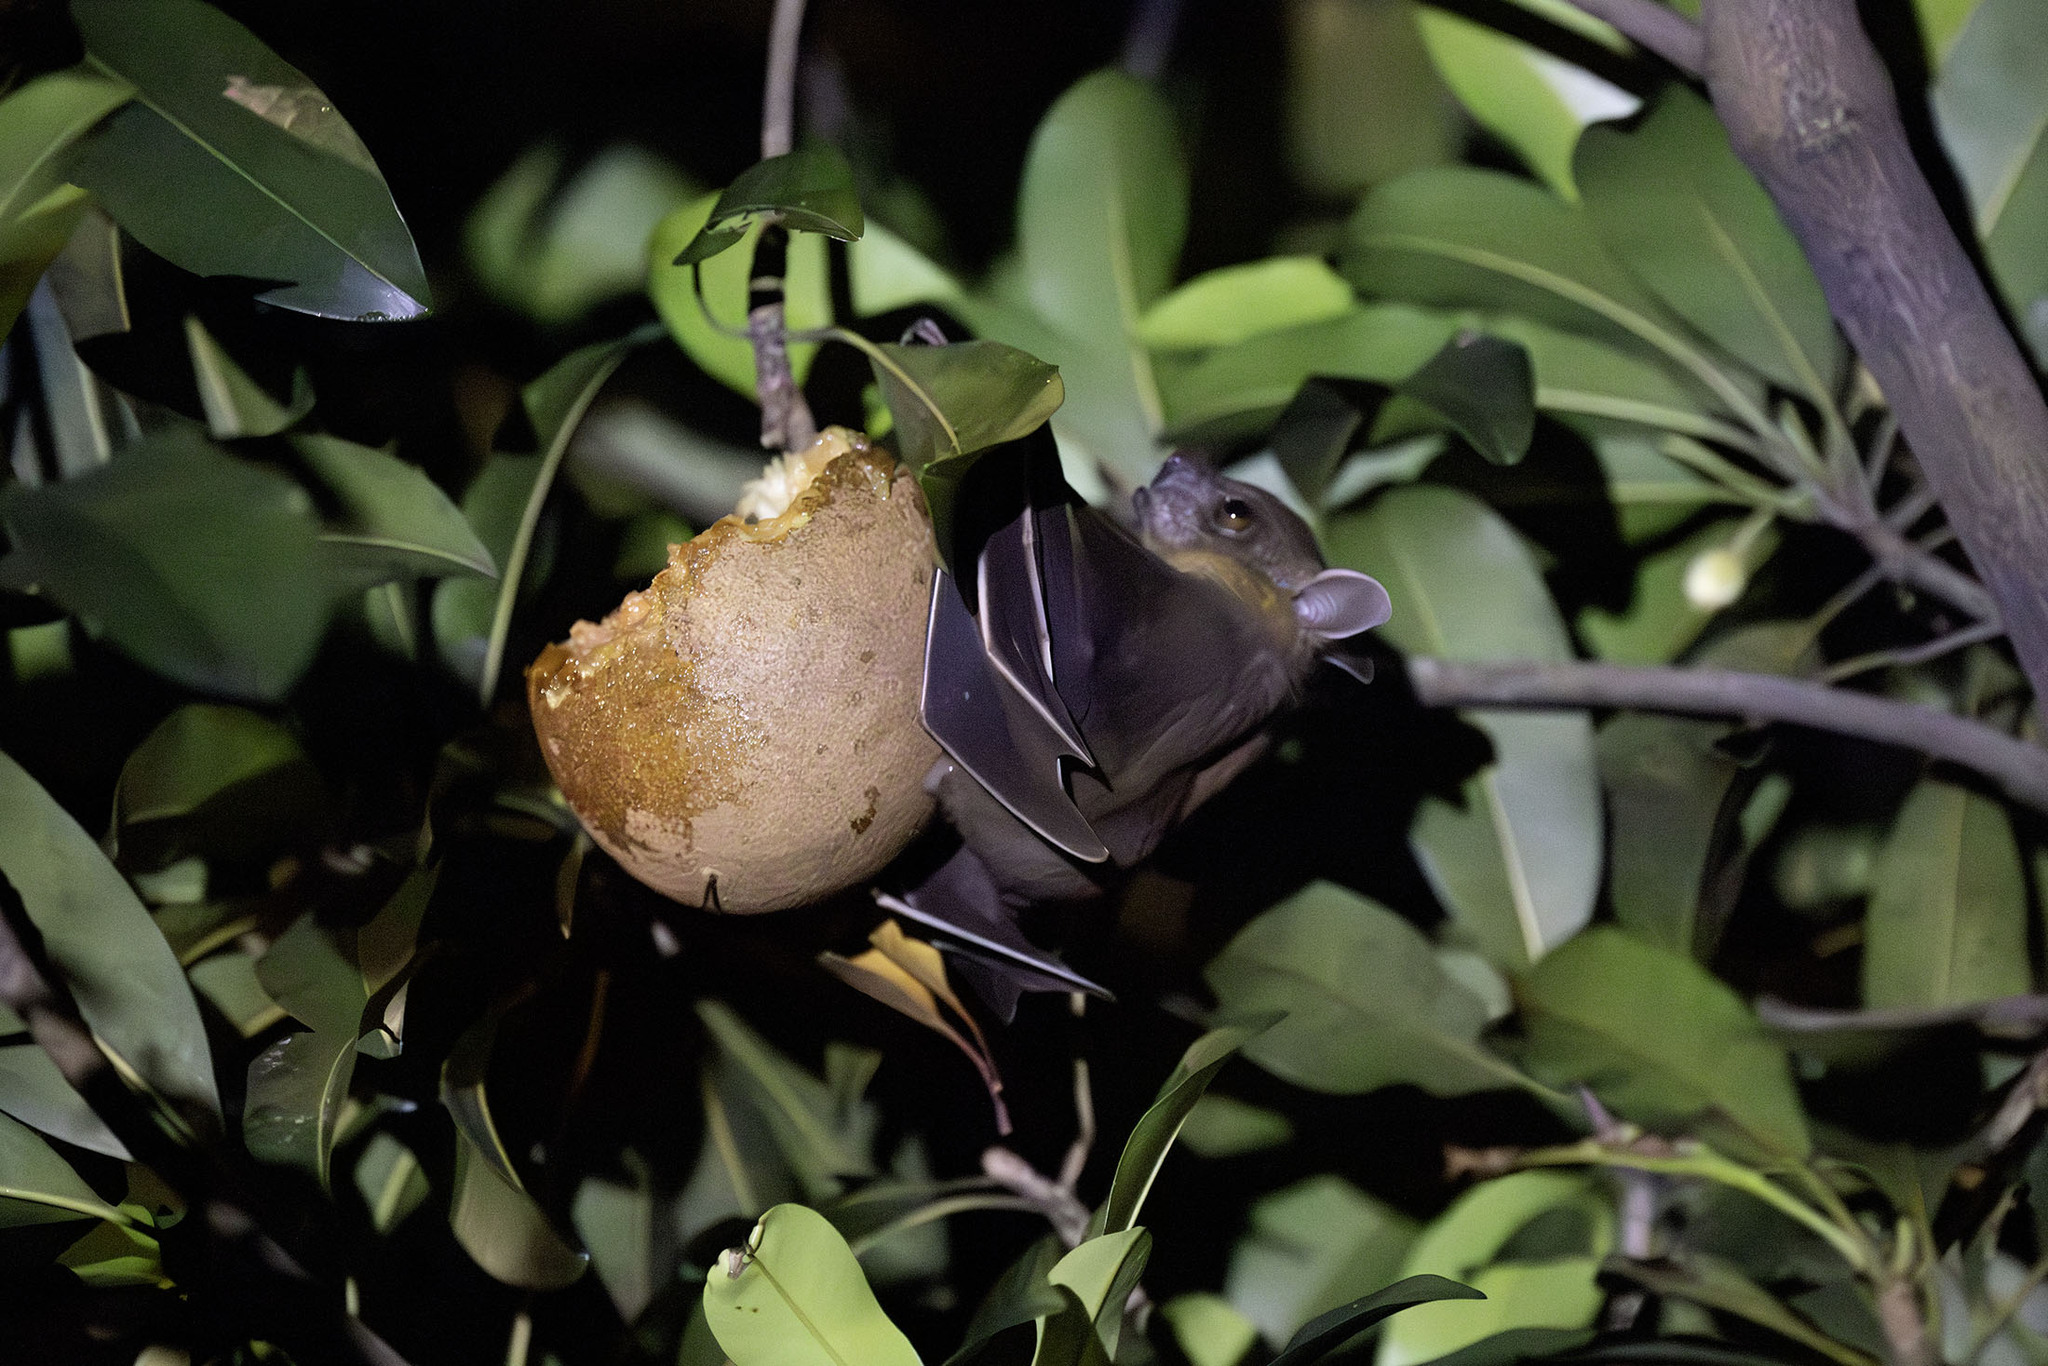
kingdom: Animalia
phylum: Chordata
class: Mammalia
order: Chiroptera
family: Pteropodidae
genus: Cynopterus
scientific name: Cynopterus brachyotis
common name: Lesser short-nosed fruit bat
